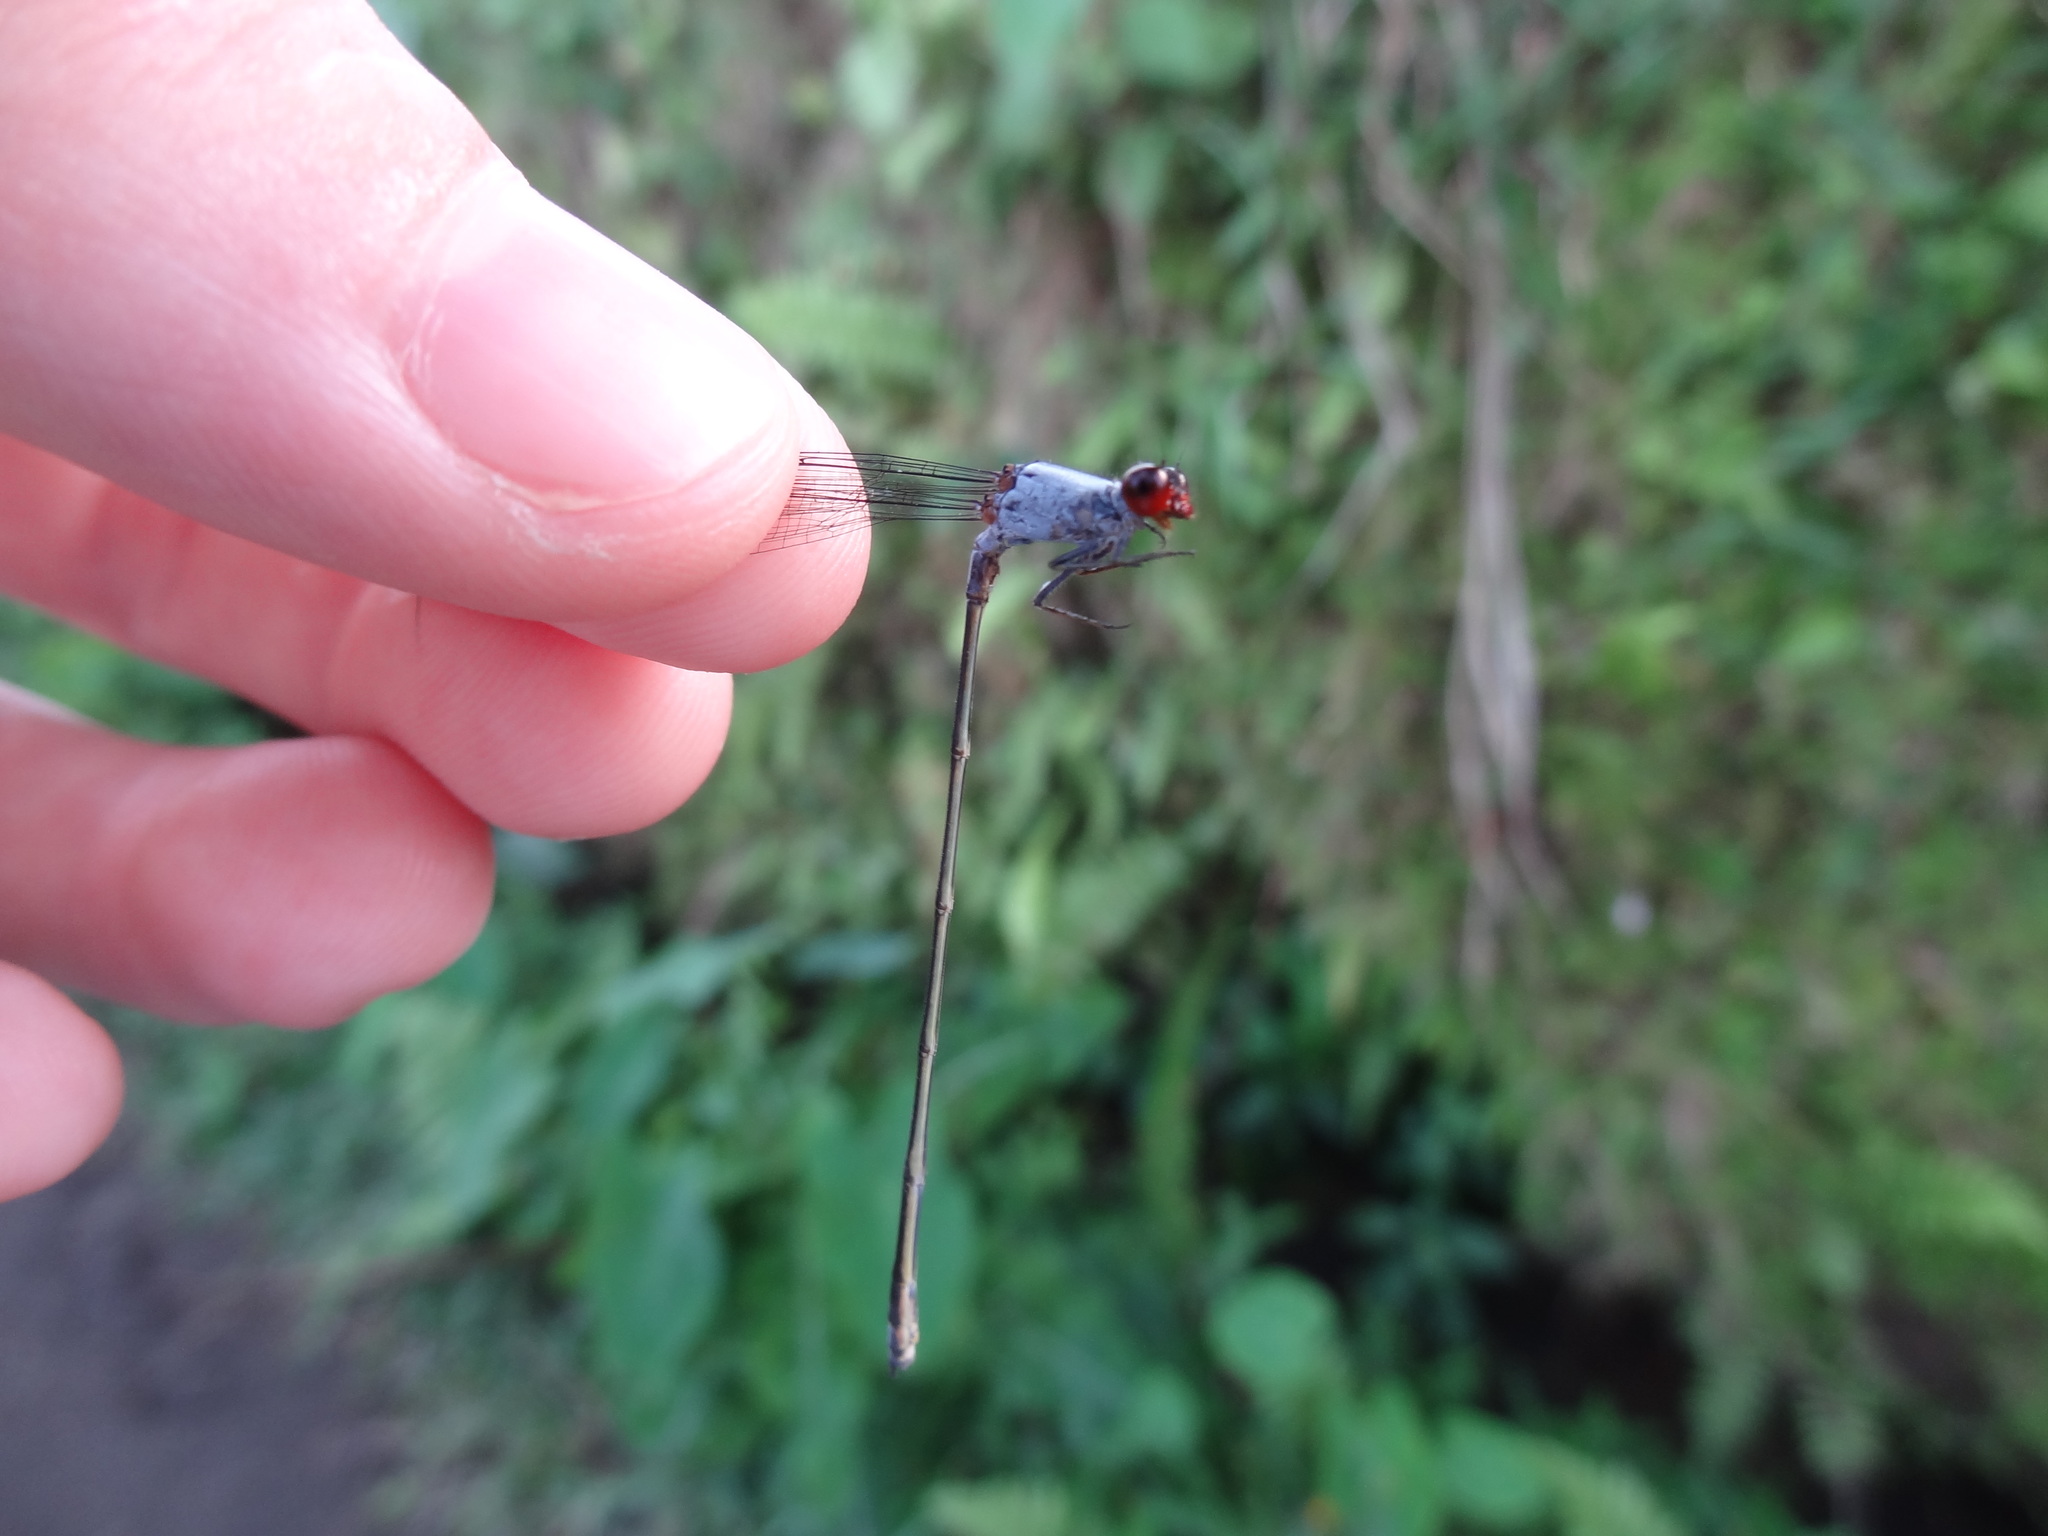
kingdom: Animalia
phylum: Arthropoda
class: Insecta
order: Odonata
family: Coenagrionidae
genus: Pseudagrion
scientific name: Pseudagrion pruinosum
